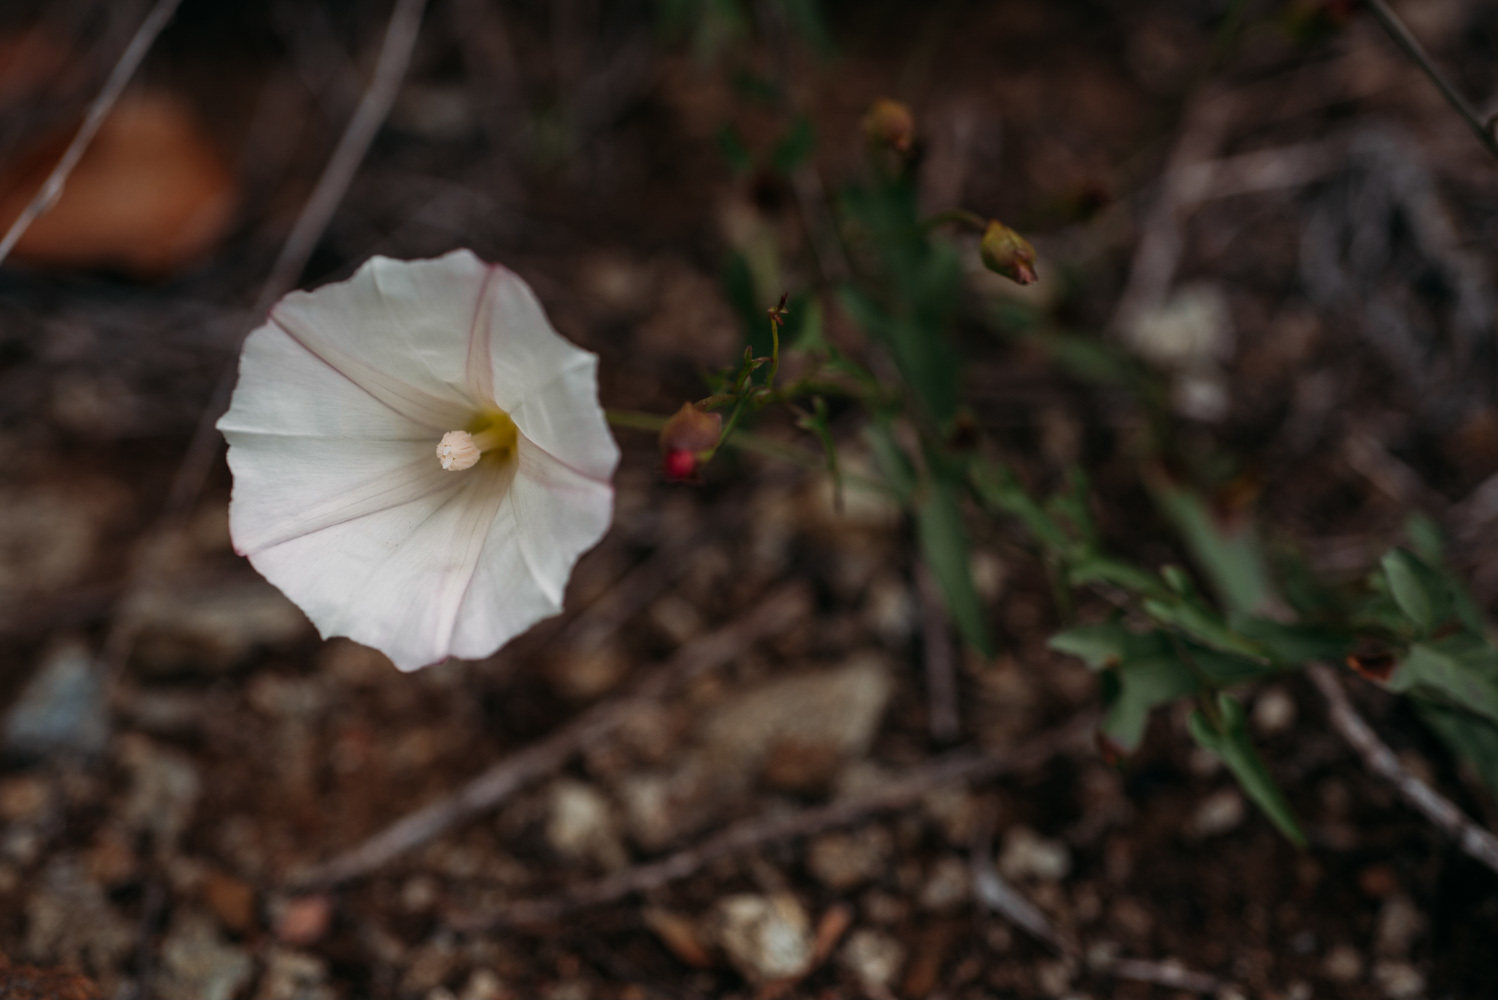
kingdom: Plantae
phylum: Tracheophyta
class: Magnoliopsida
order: Solanales
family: Convolvulaceae
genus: Calystegia
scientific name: Calystegia macrostegia
